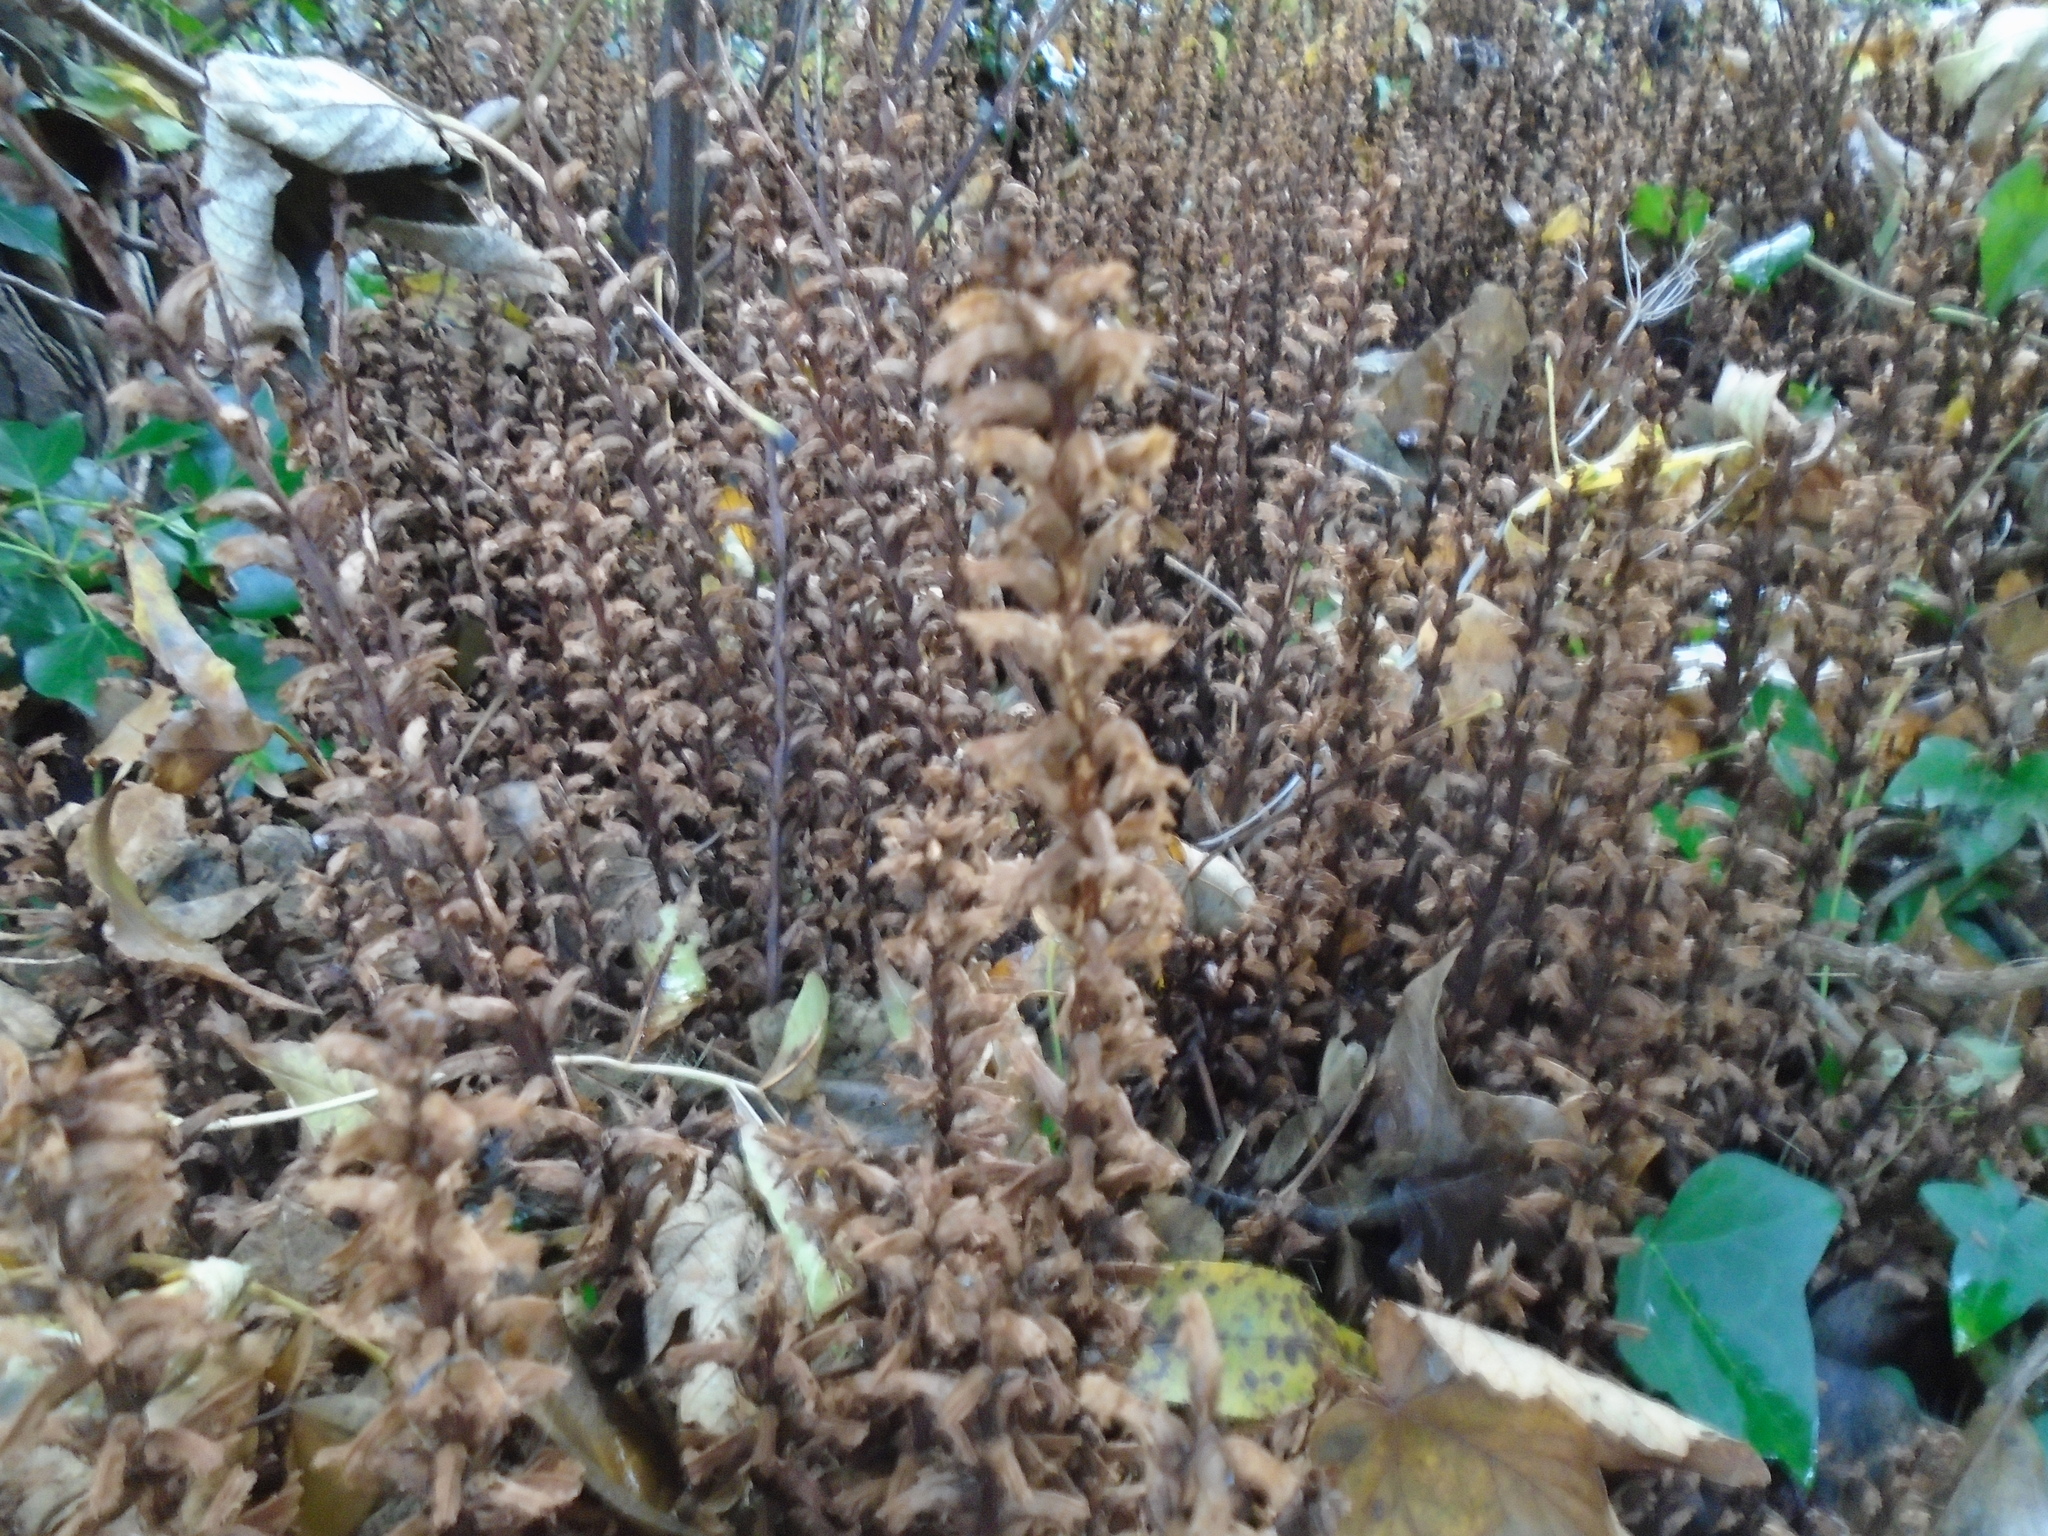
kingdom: Plantae
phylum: Tracheophyta
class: Magnoliopsida
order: Lamiales
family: Orobanchaceae
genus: Orobanche
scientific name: Orobanche hederae
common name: Ivy broomrape
